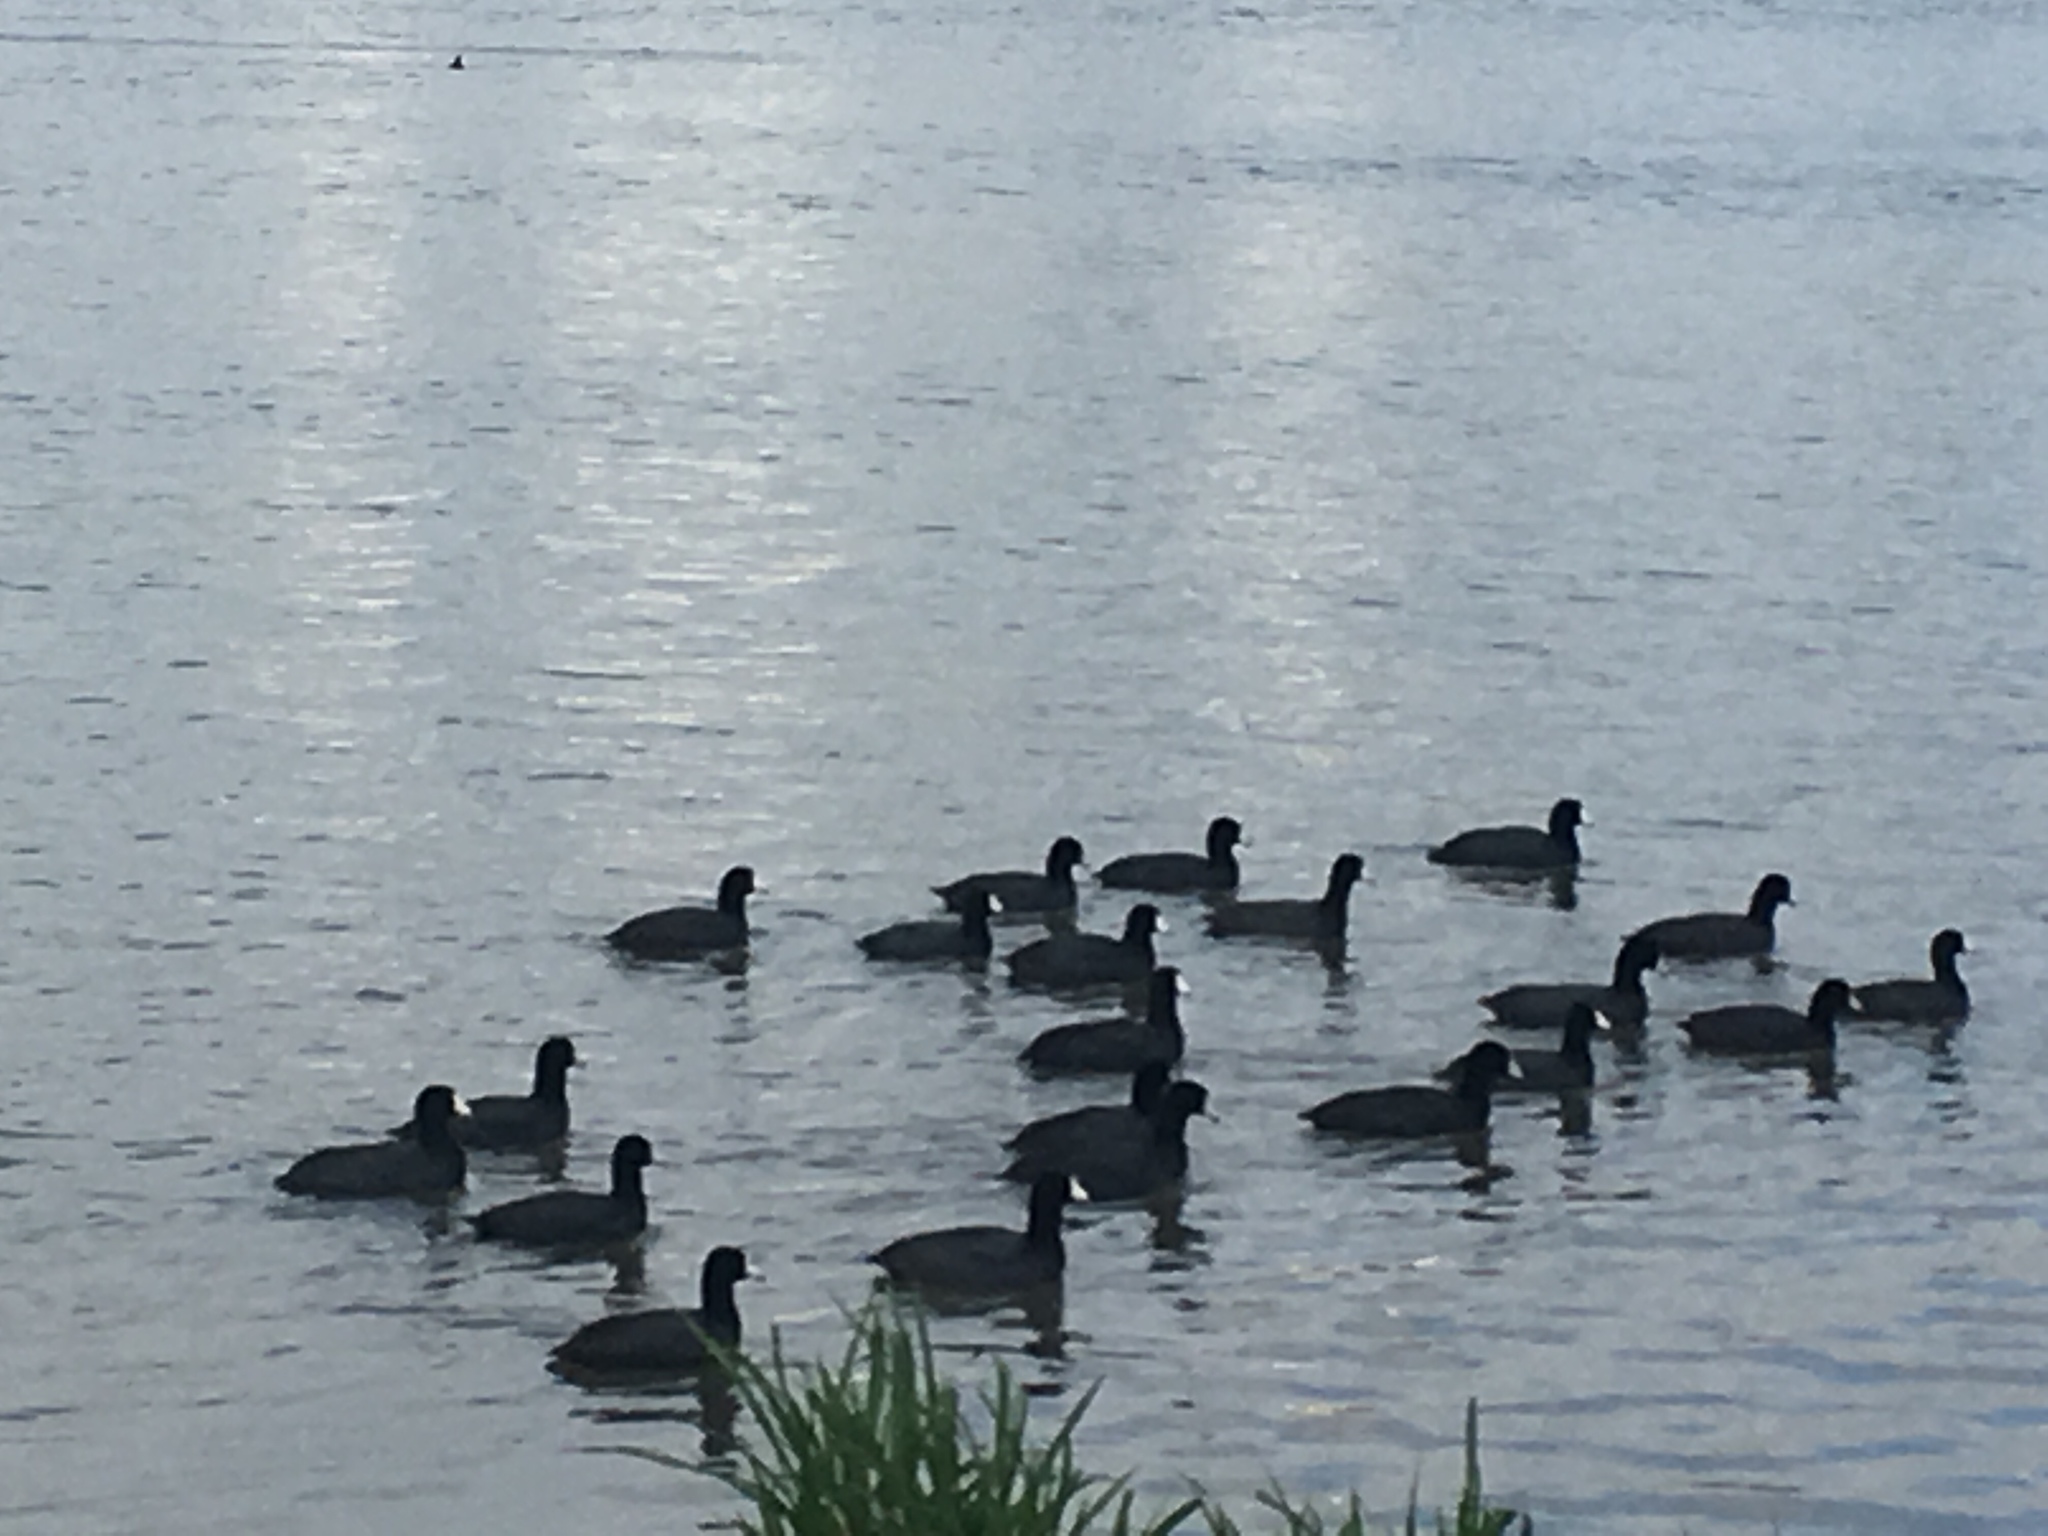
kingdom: Animalia
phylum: Chordata
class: Aves
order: Gruiformes
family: Rallidae
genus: Fulica
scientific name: Fulica americana
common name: American coot
